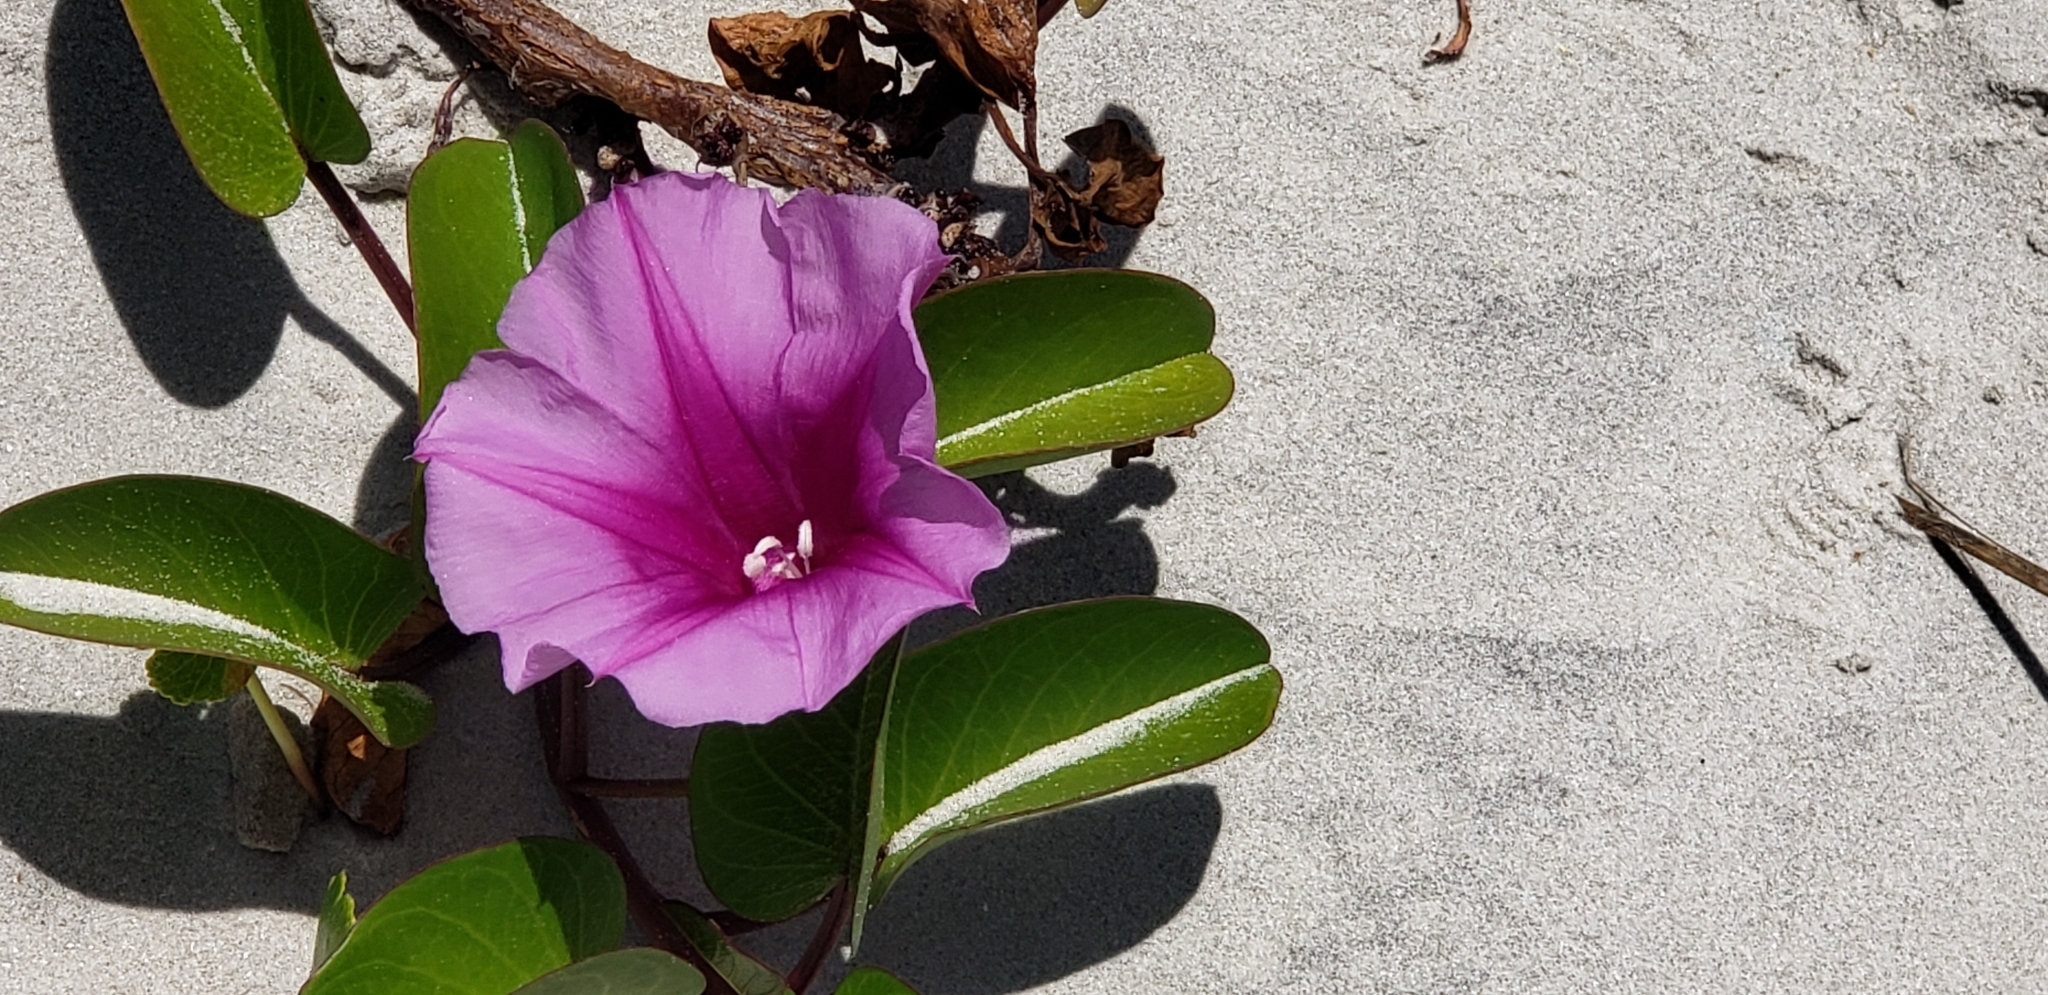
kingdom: Plantae
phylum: Tracheophyta
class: Magnoliopsida
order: Solanales
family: Convolvulaceae
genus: Ipomoea
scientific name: Ipomoea pes-caprae
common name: Beach morning glory
